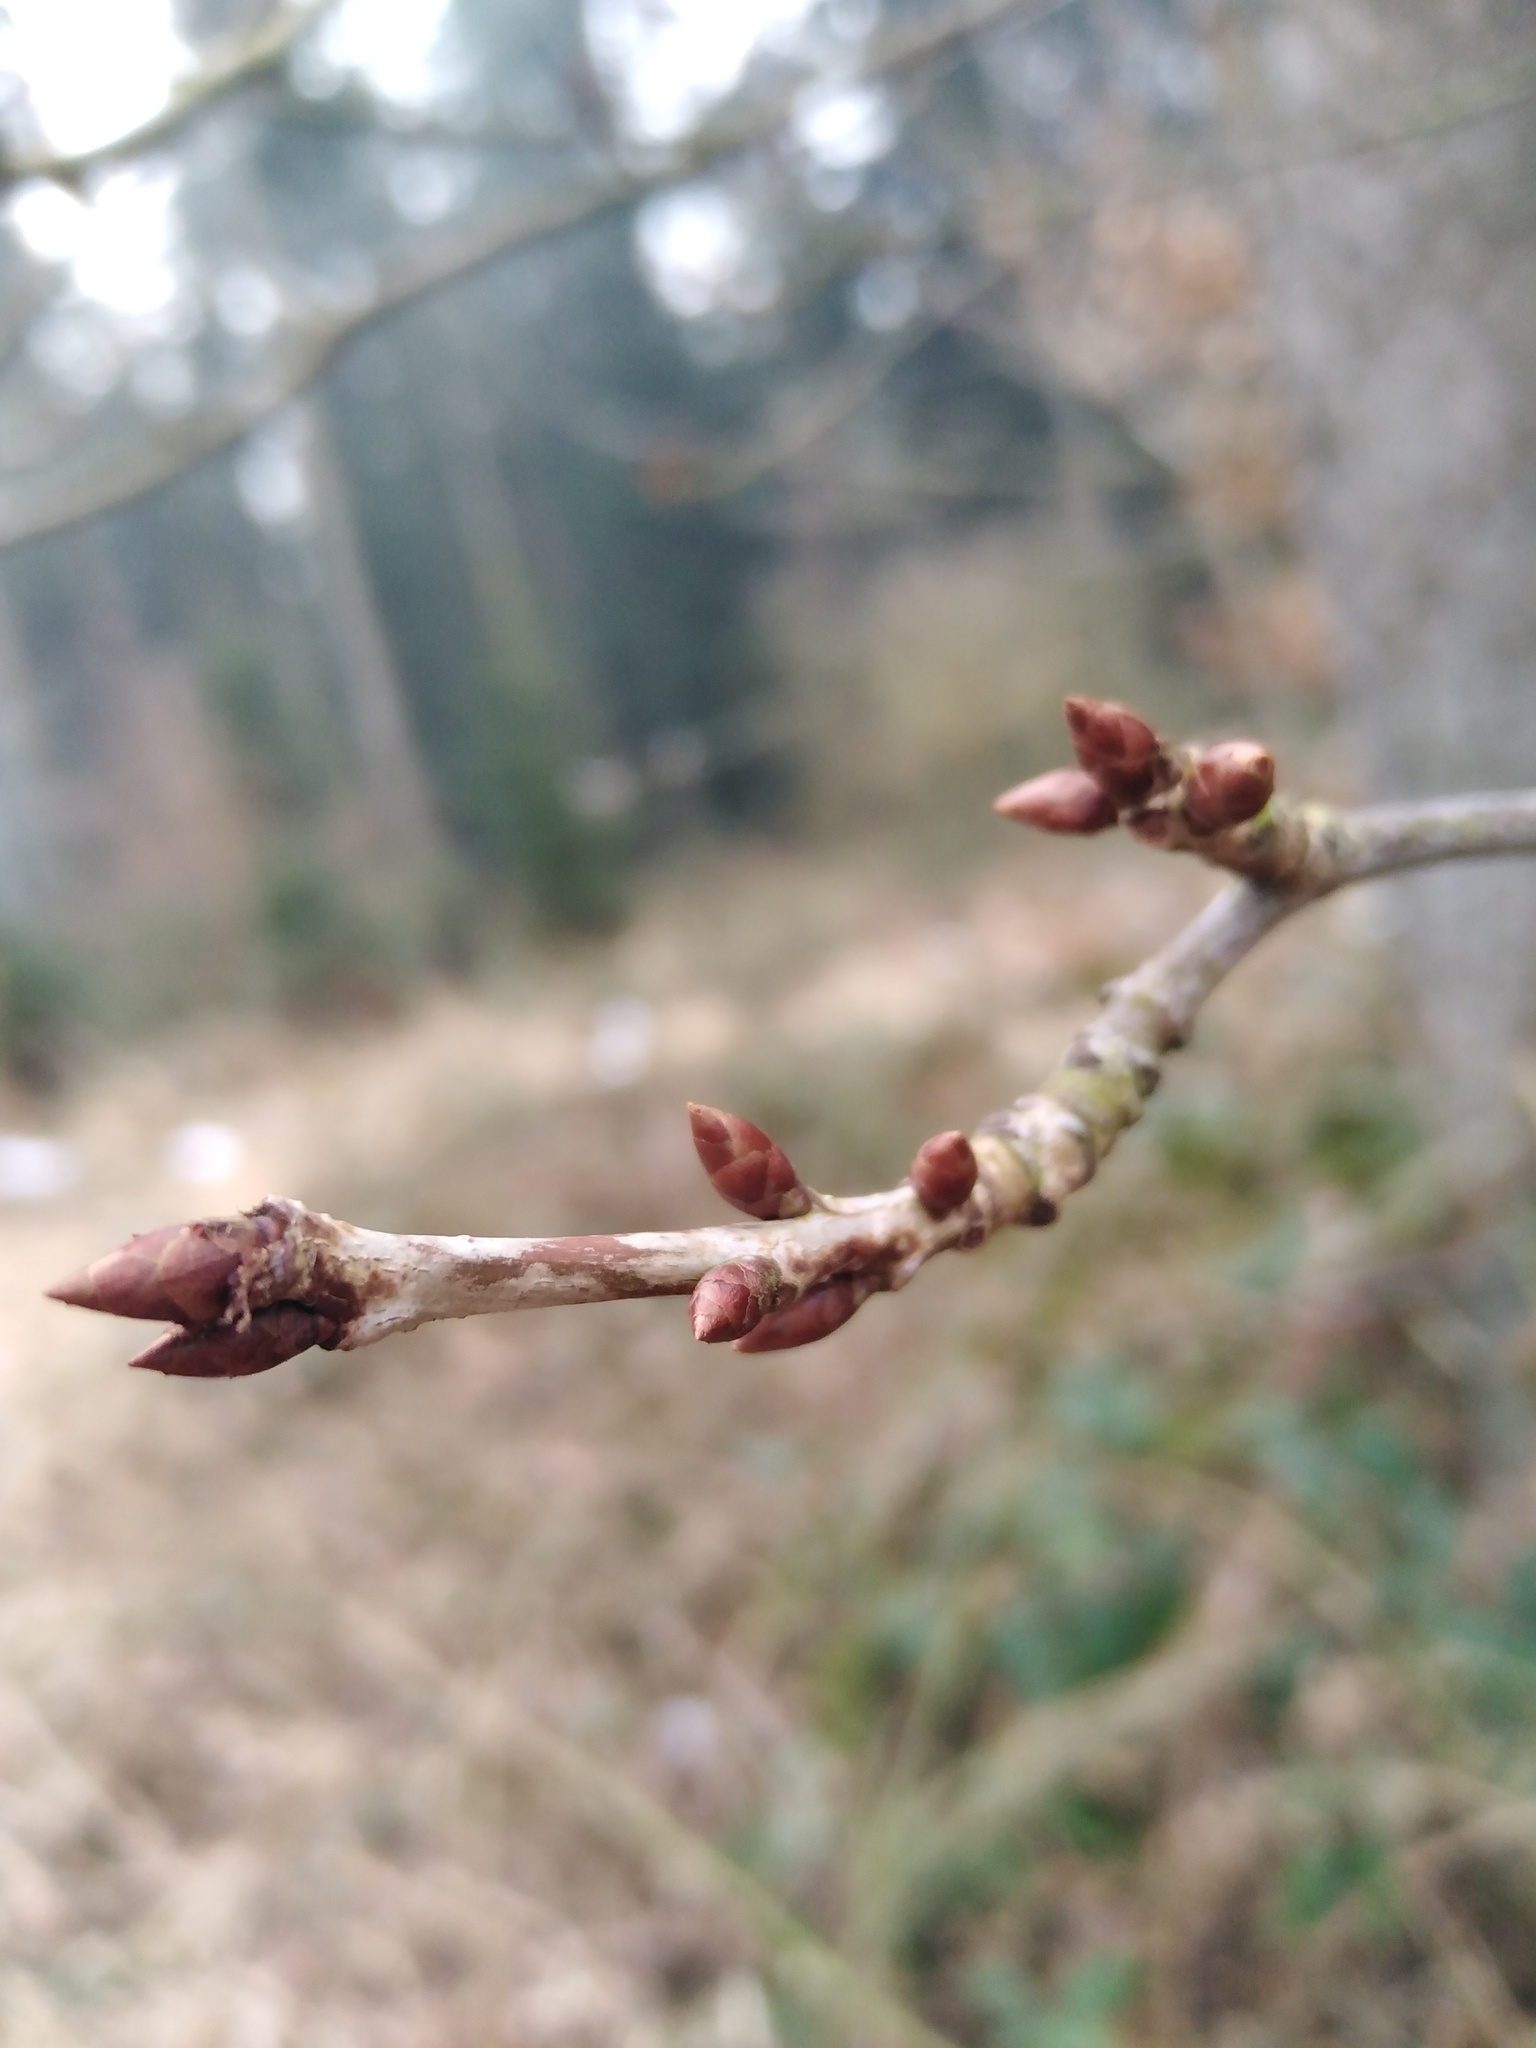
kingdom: Plantae
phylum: Tracheophyta
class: Magnoliopsida
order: Rosales
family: Rosaceae
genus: Prunus
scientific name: Prunus avium
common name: Sweet cherry
